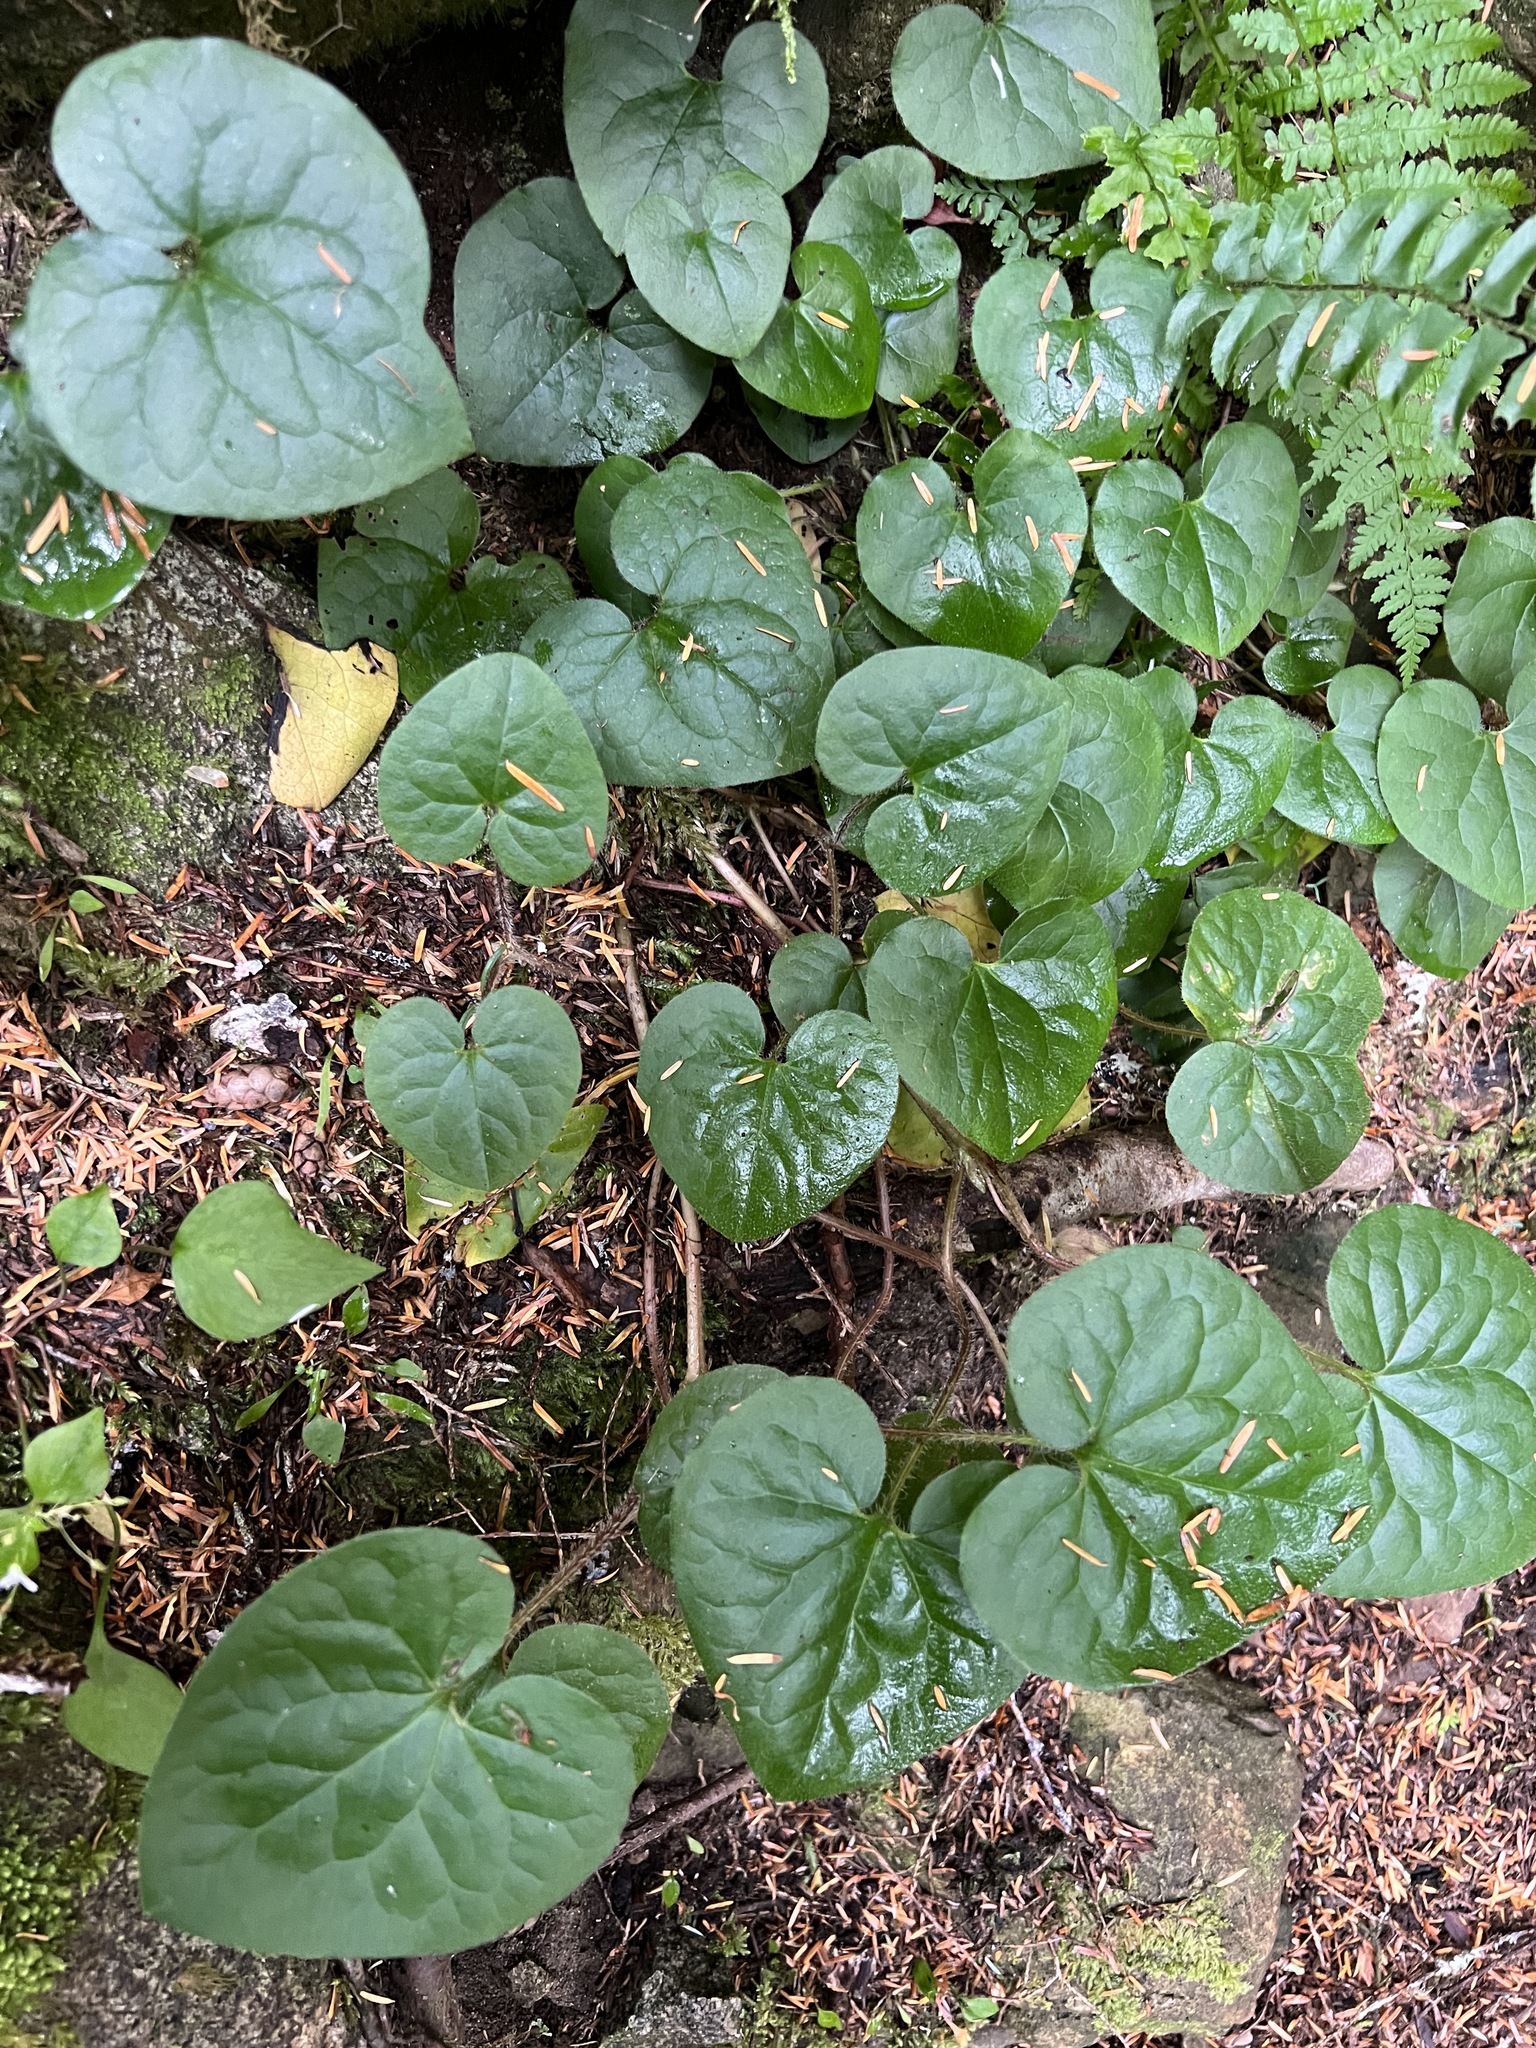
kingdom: Plantae
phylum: Tracheophyta
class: Magnoliopsida
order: Piperales
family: Aristolochiaceae
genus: Asarum
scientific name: Asarum caudatum
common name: Wild ginger
